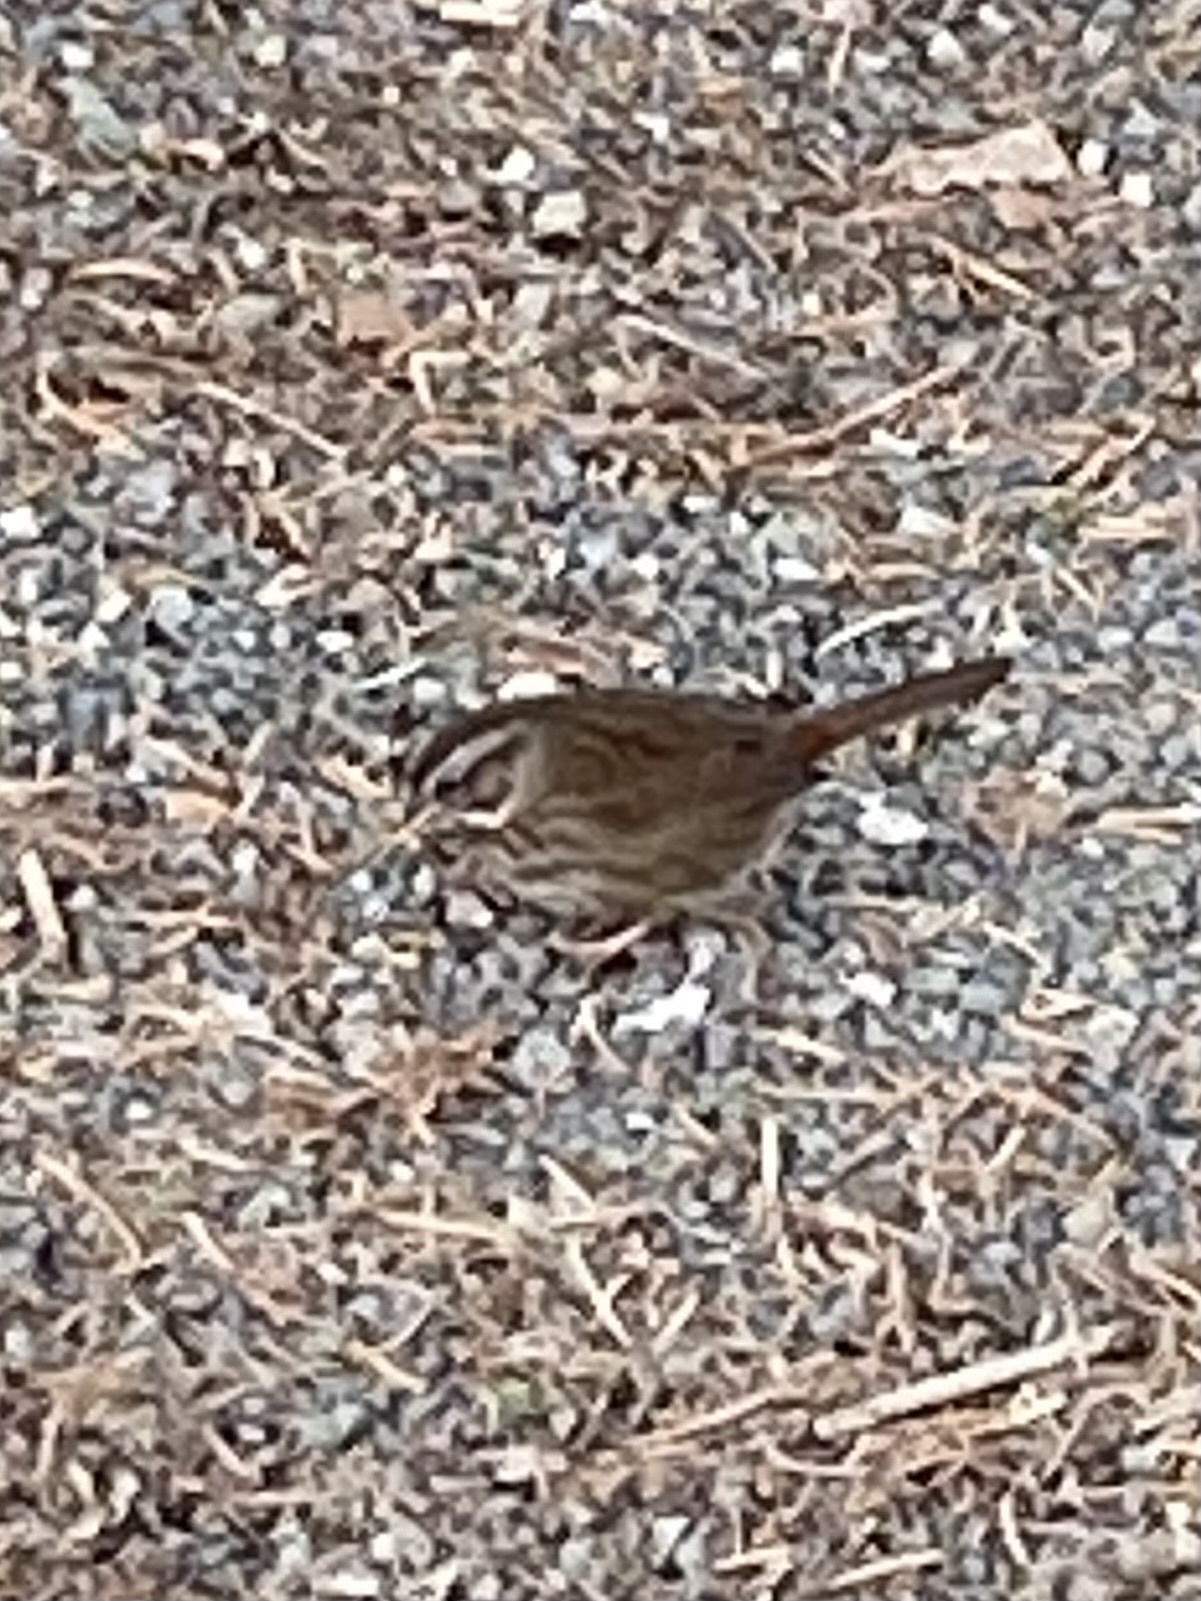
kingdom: Animalia
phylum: Chordata
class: Aves
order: Passeriformes
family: Passerellidae
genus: Melospiza
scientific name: Melospiza melodia
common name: Song sparrow
